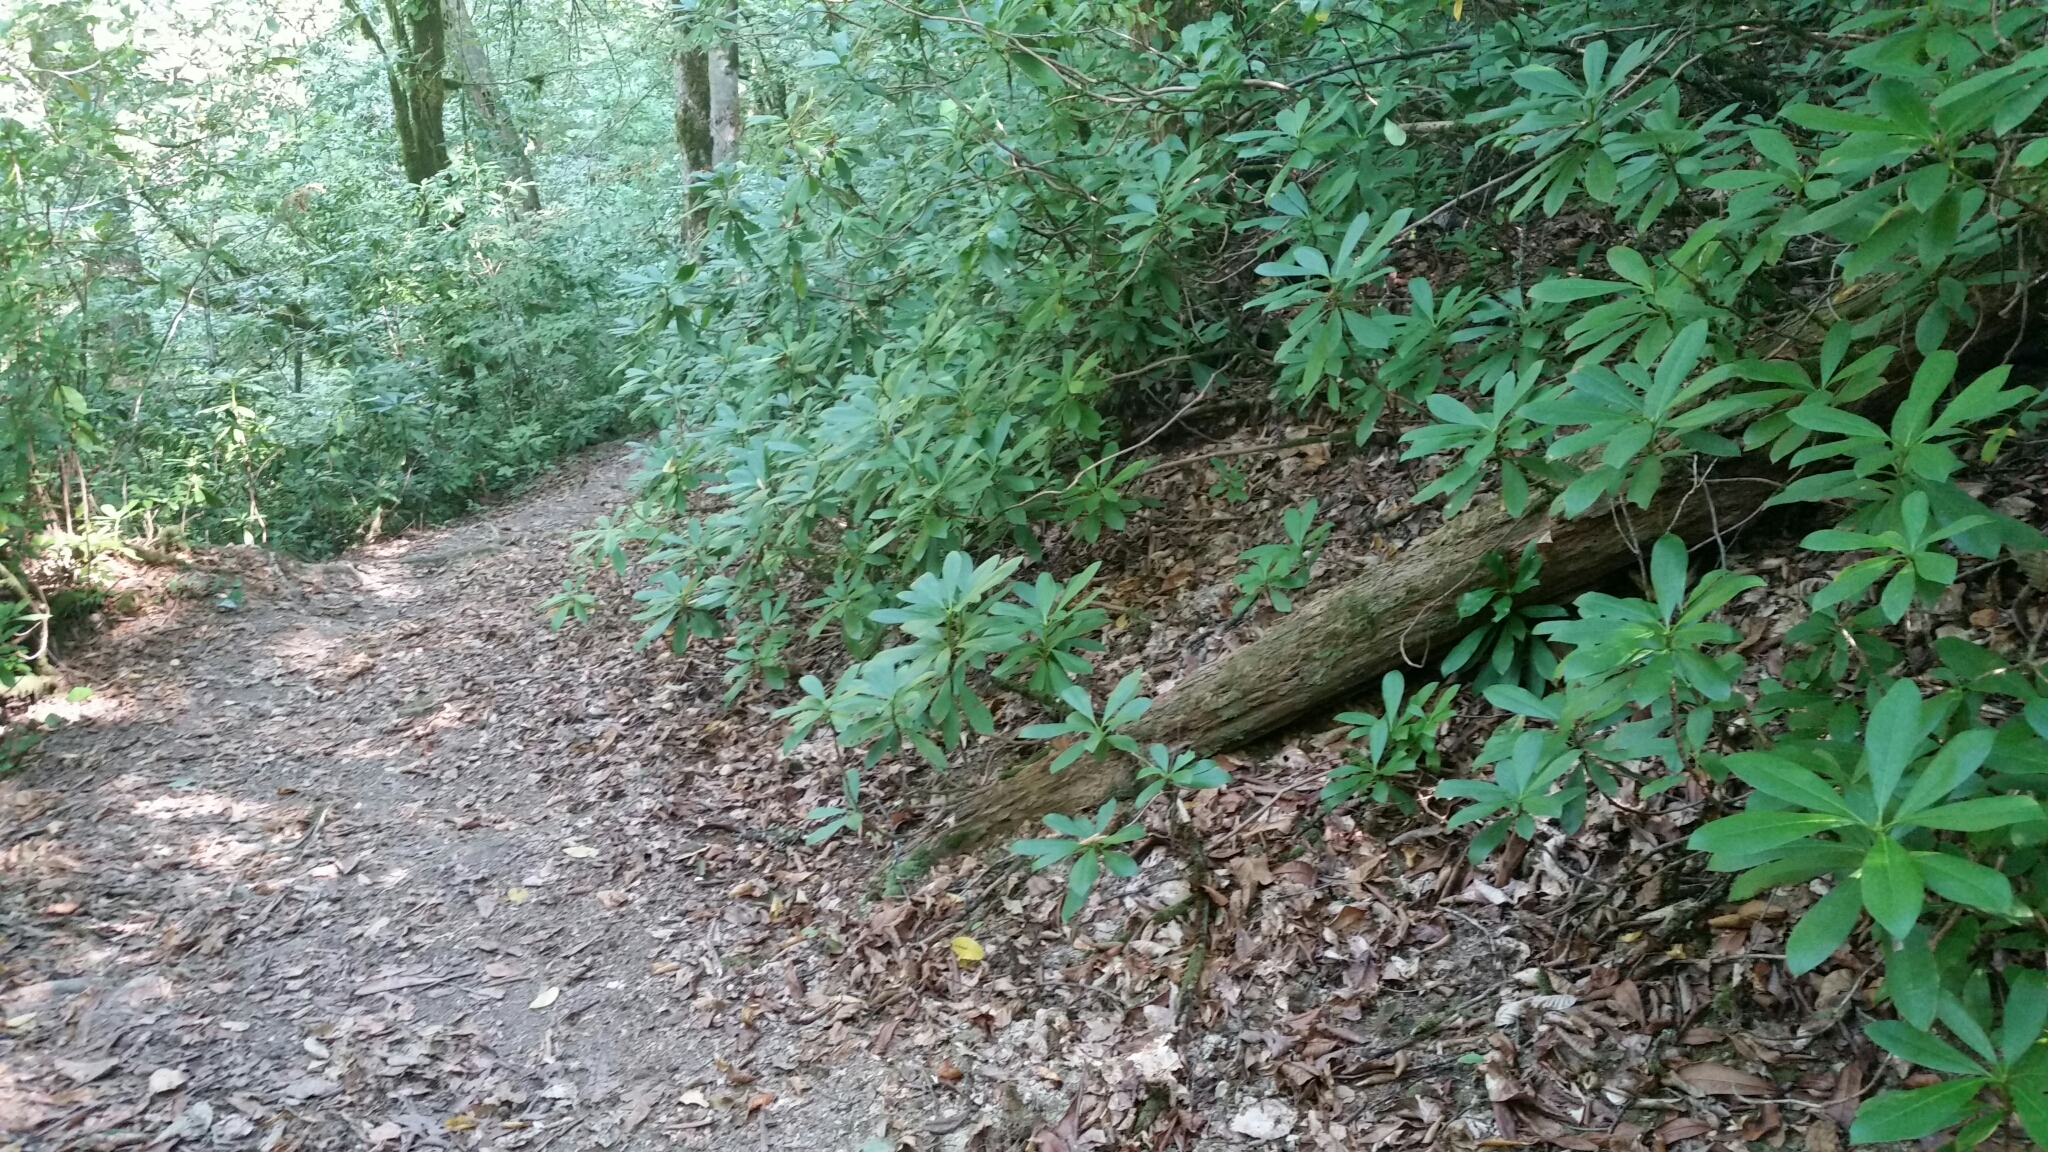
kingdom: Plantae
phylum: Tracheophyta
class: Magnoliopsida
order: Ericales
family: Ericaceae
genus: Rhododendron
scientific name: Rhododendron ponticum
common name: Rhododendron
